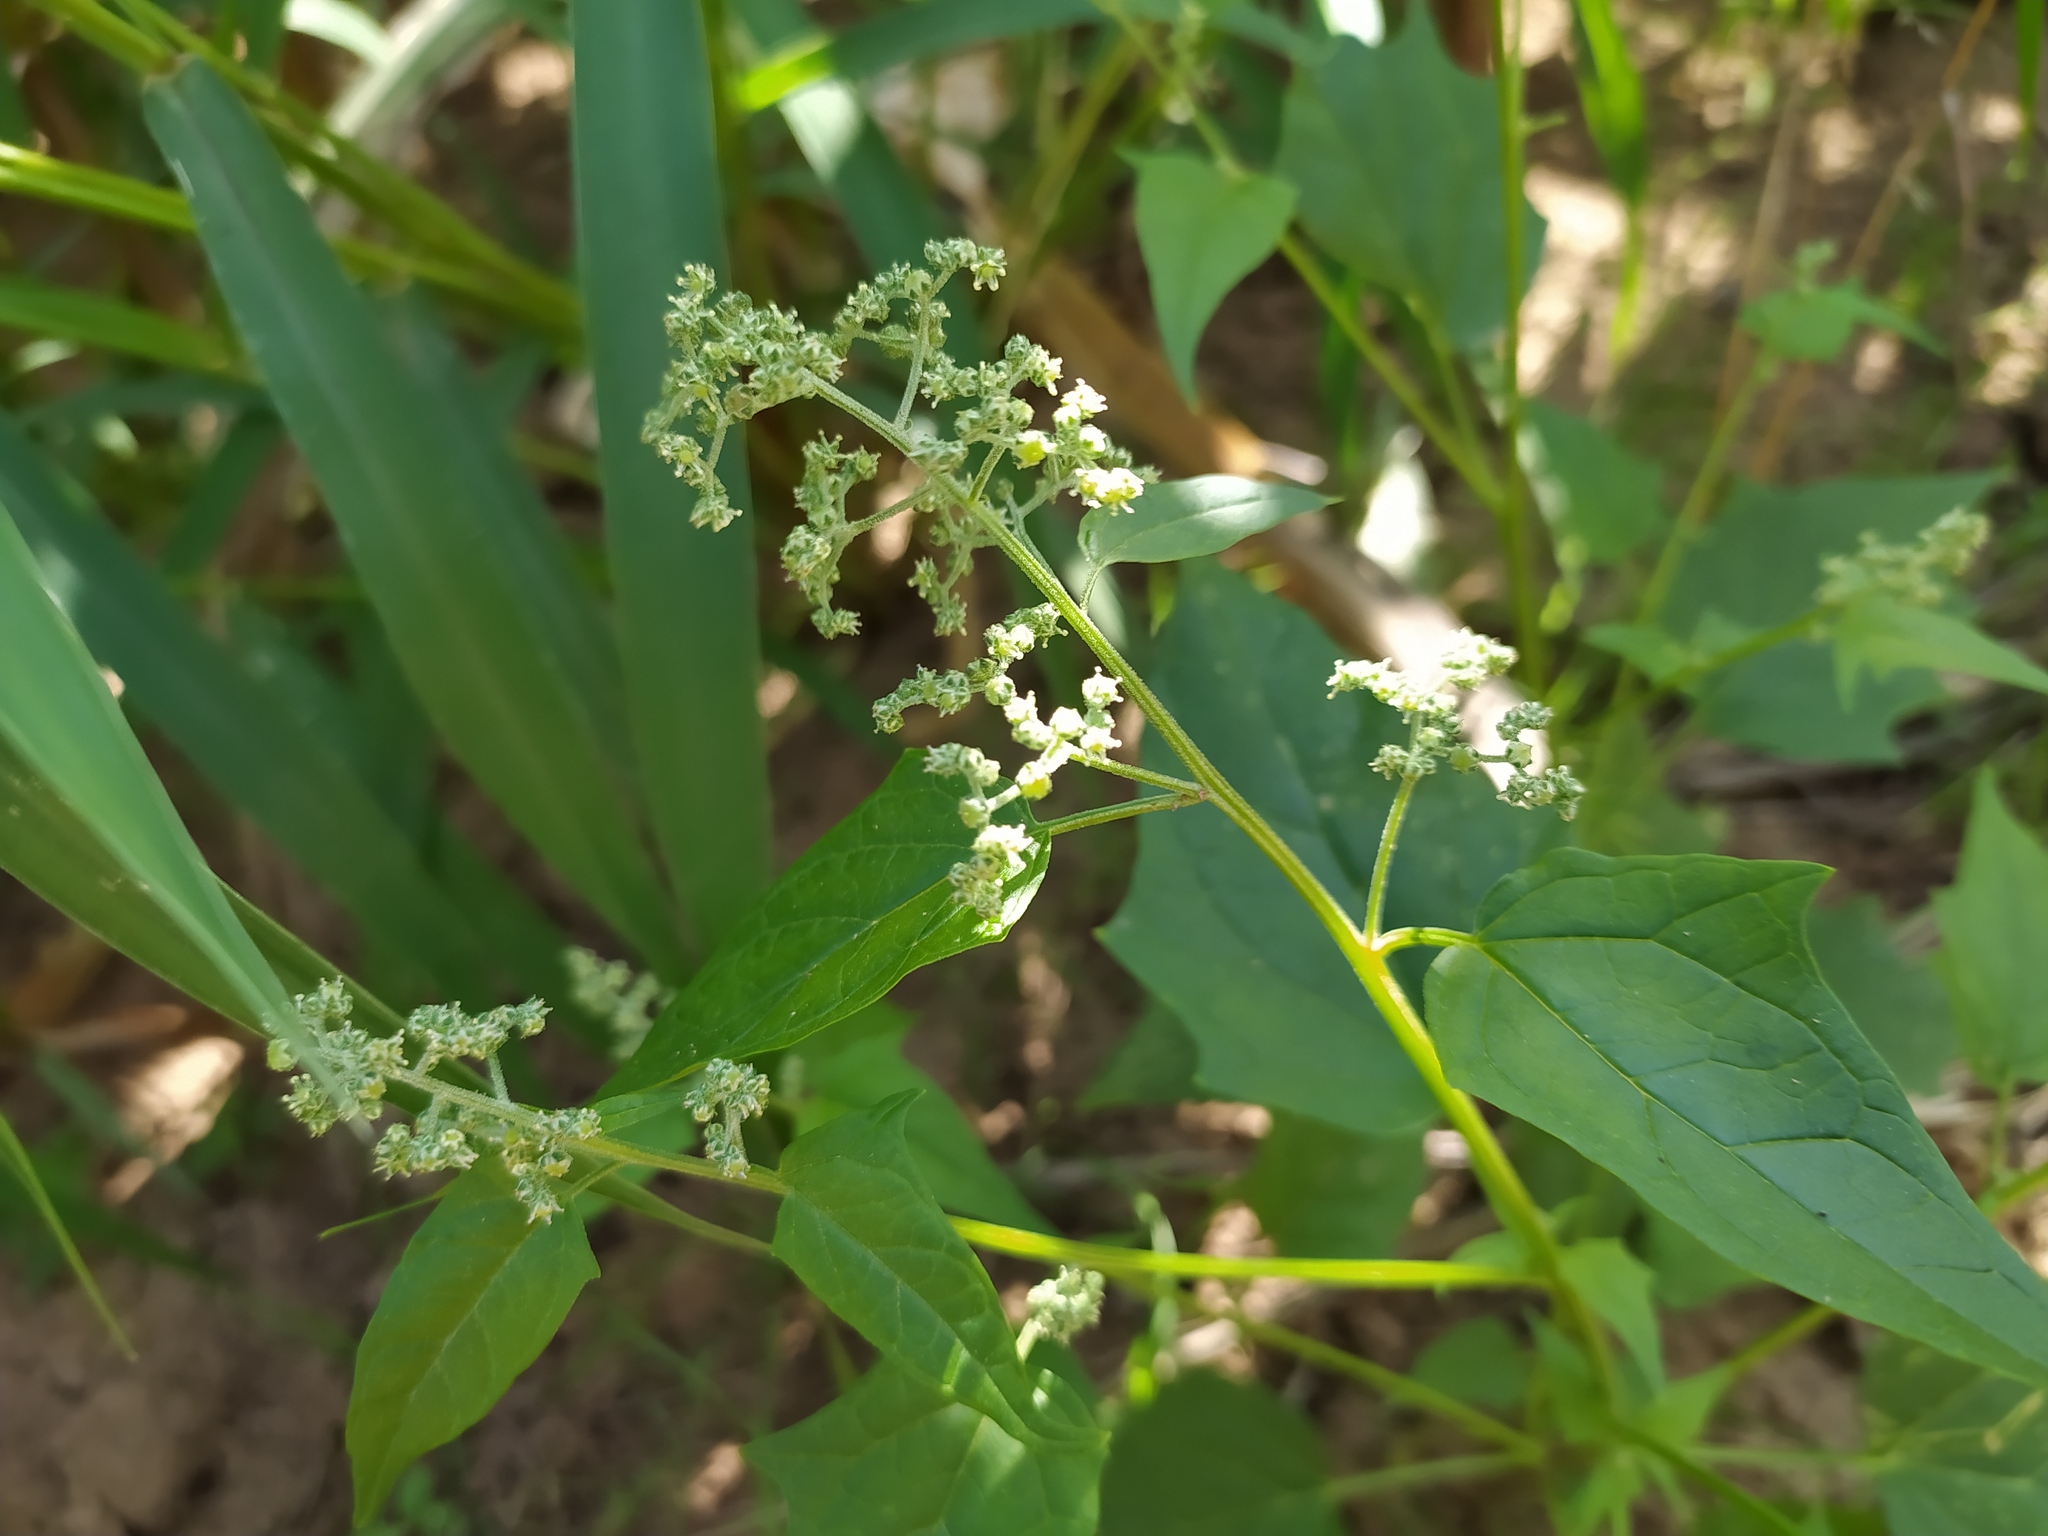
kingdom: Plantae
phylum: Tracheophyta
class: Magnoliopsida
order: Caryophyllales
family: Amaranthaceae
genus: Chenopodiastrum
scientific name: Chenopodiastrum hybridum
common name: Mapleleaf goosefoot
